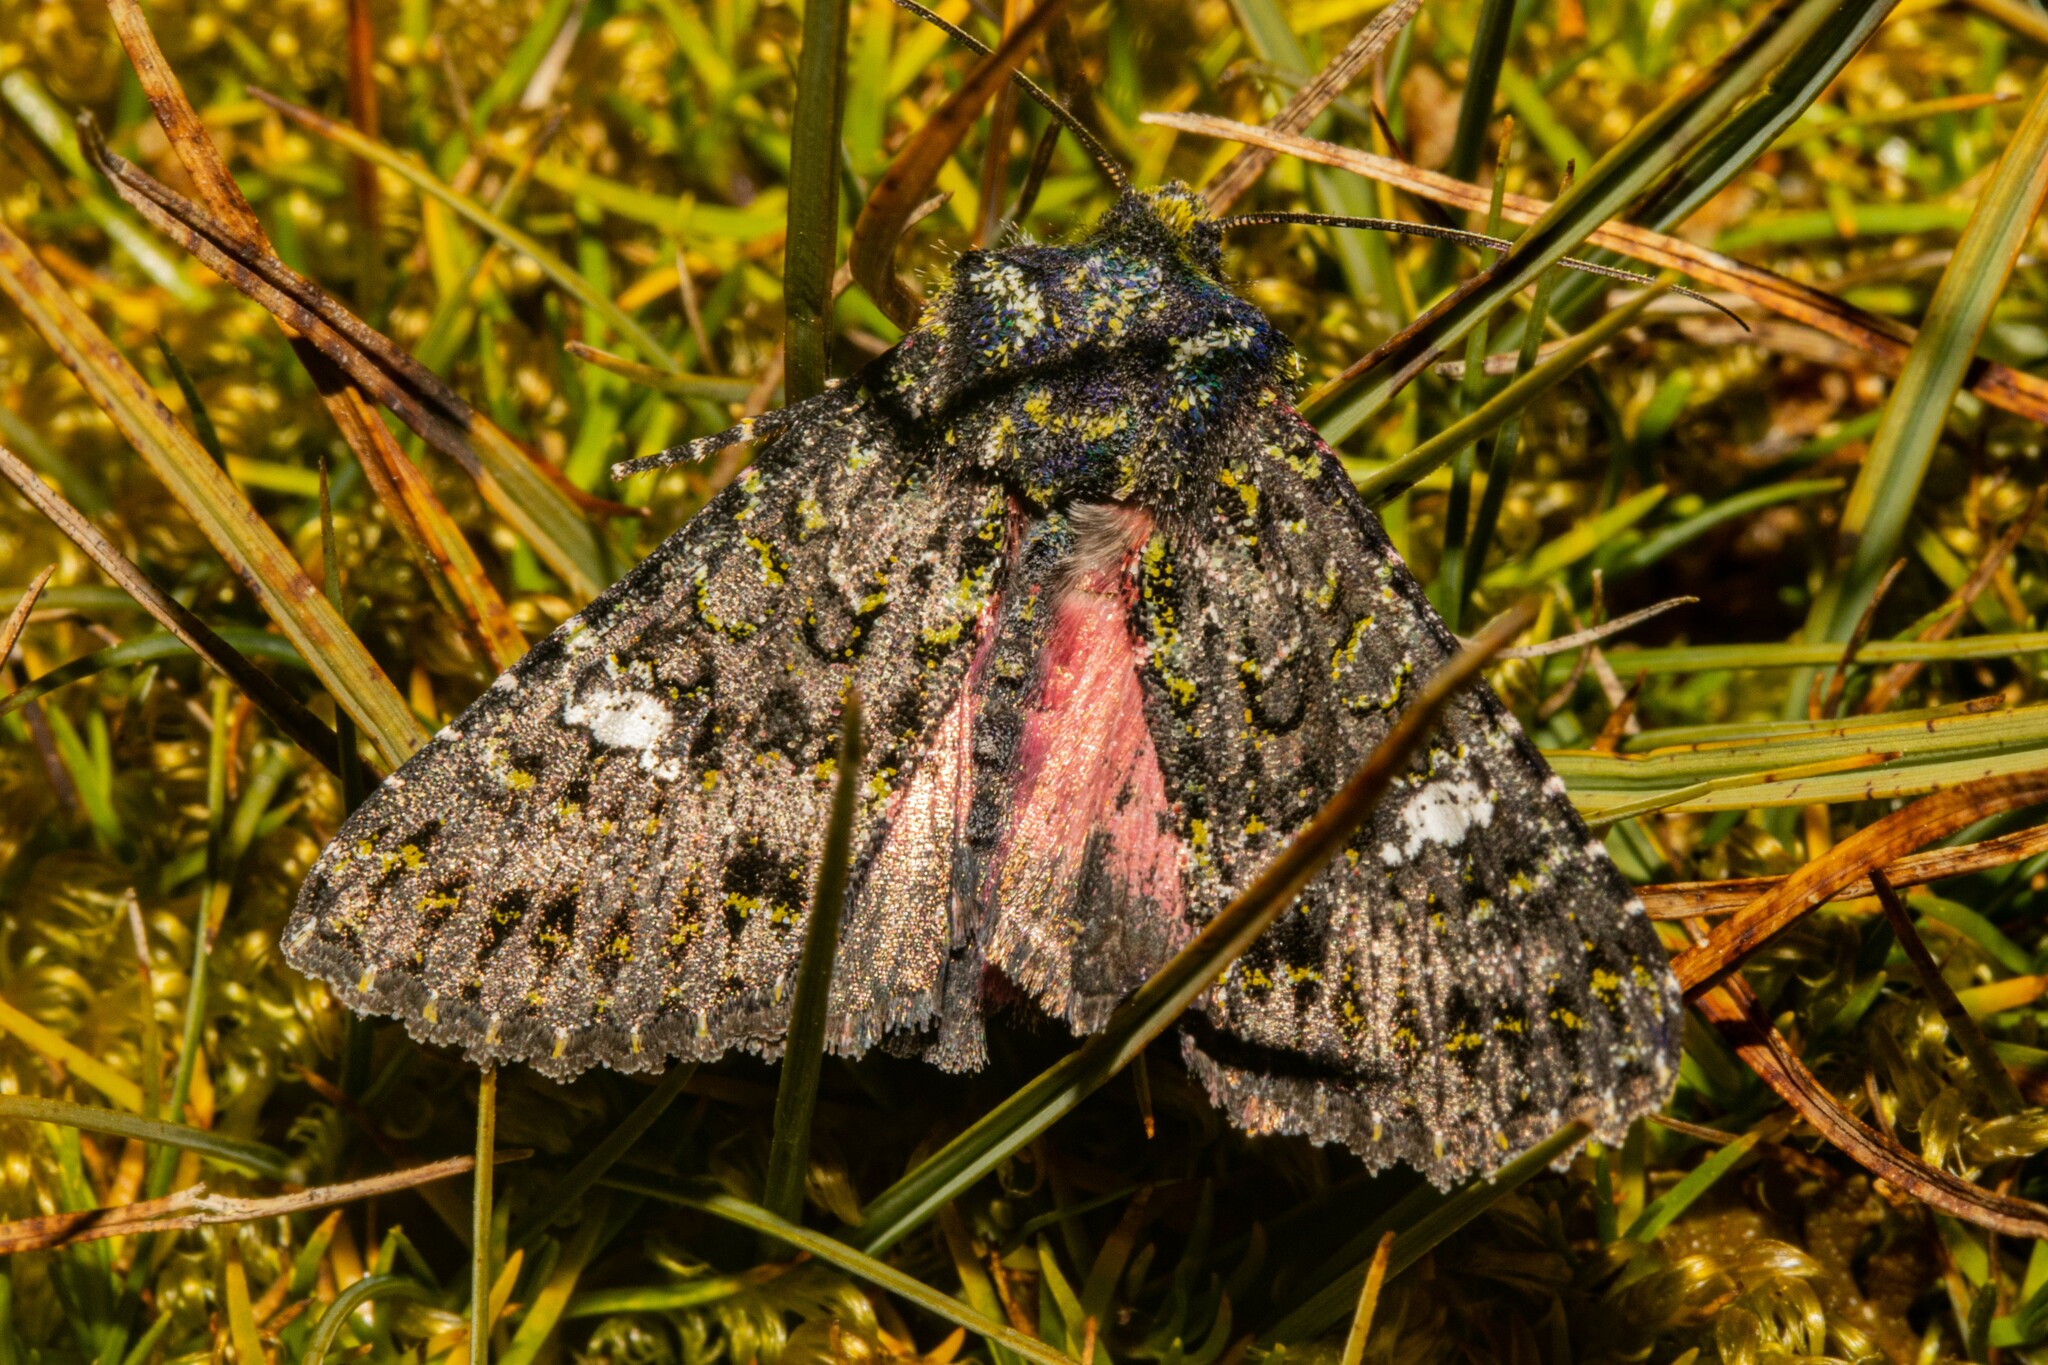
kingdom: Animalia
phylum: Arthropoda
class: Insecta
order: Lepidoptera
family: Noctuidae
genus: Meterana
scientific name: Meterana meyricci
